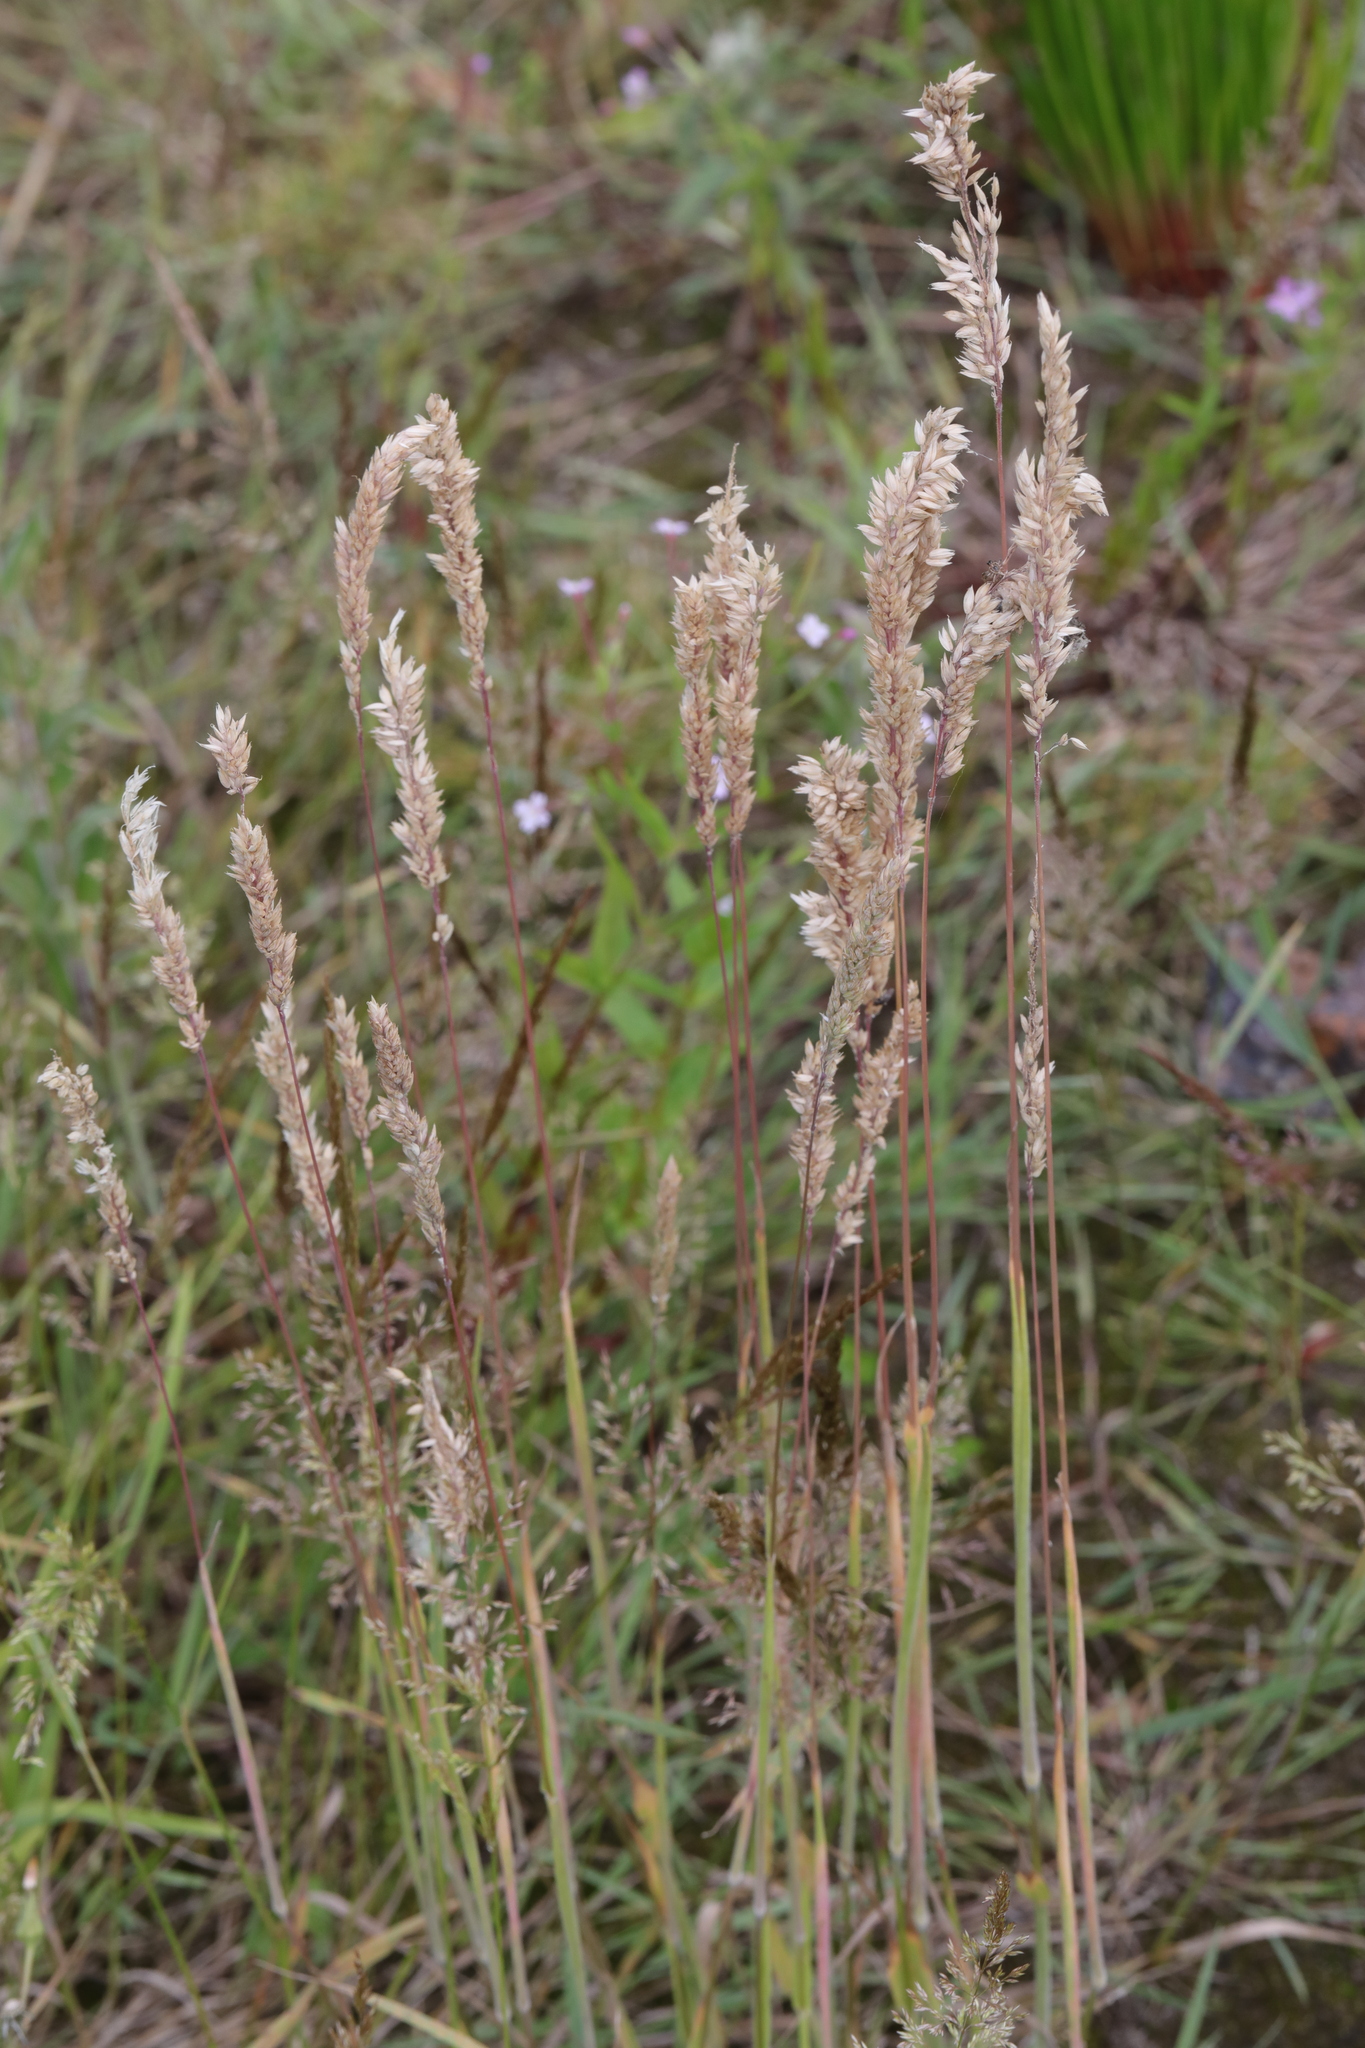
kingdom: Plantae
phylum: Tracheophyta
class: Liliopsida
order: Poales
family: Poaceae
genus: Holcus
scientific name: Holcus lanatus
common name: Yorkshire-fog
